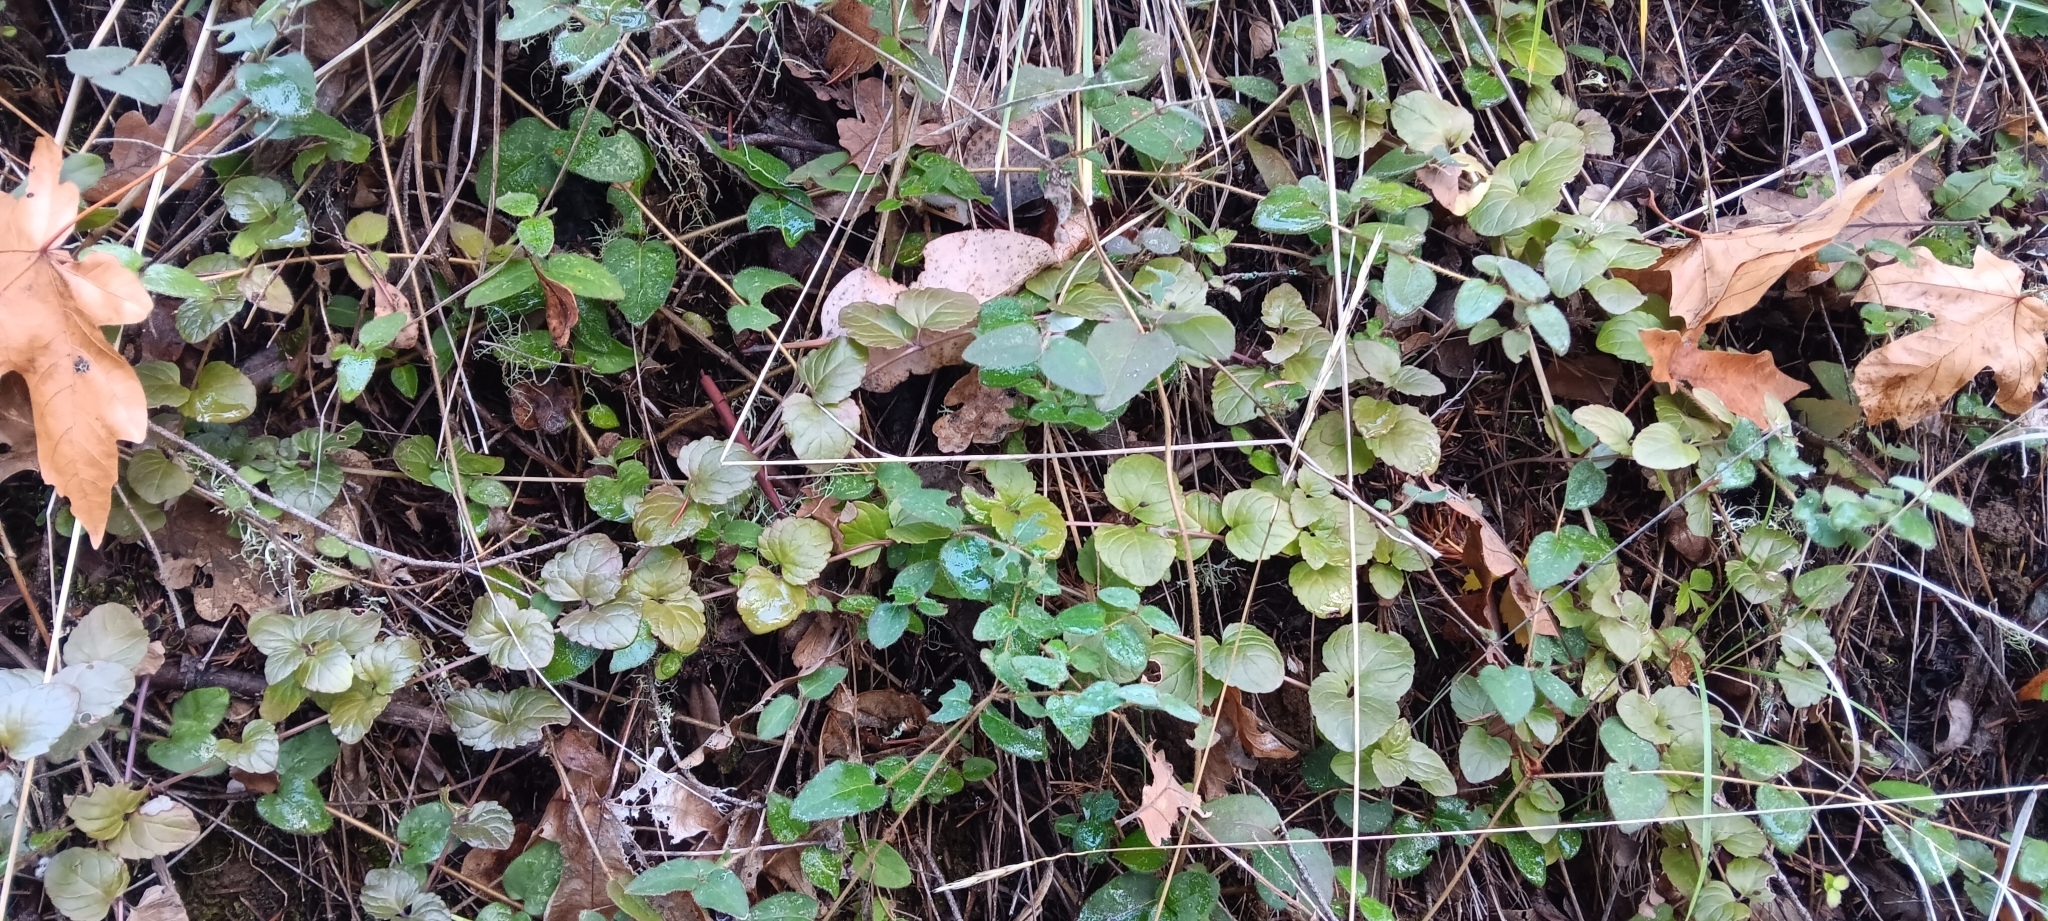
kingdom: Plantae
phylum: Tracheophyta
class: Magnoliopsida
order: Lamiales
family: Lamiaceae
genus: Micromeria
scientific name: Micromeria douglasii
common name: Yerba buena
